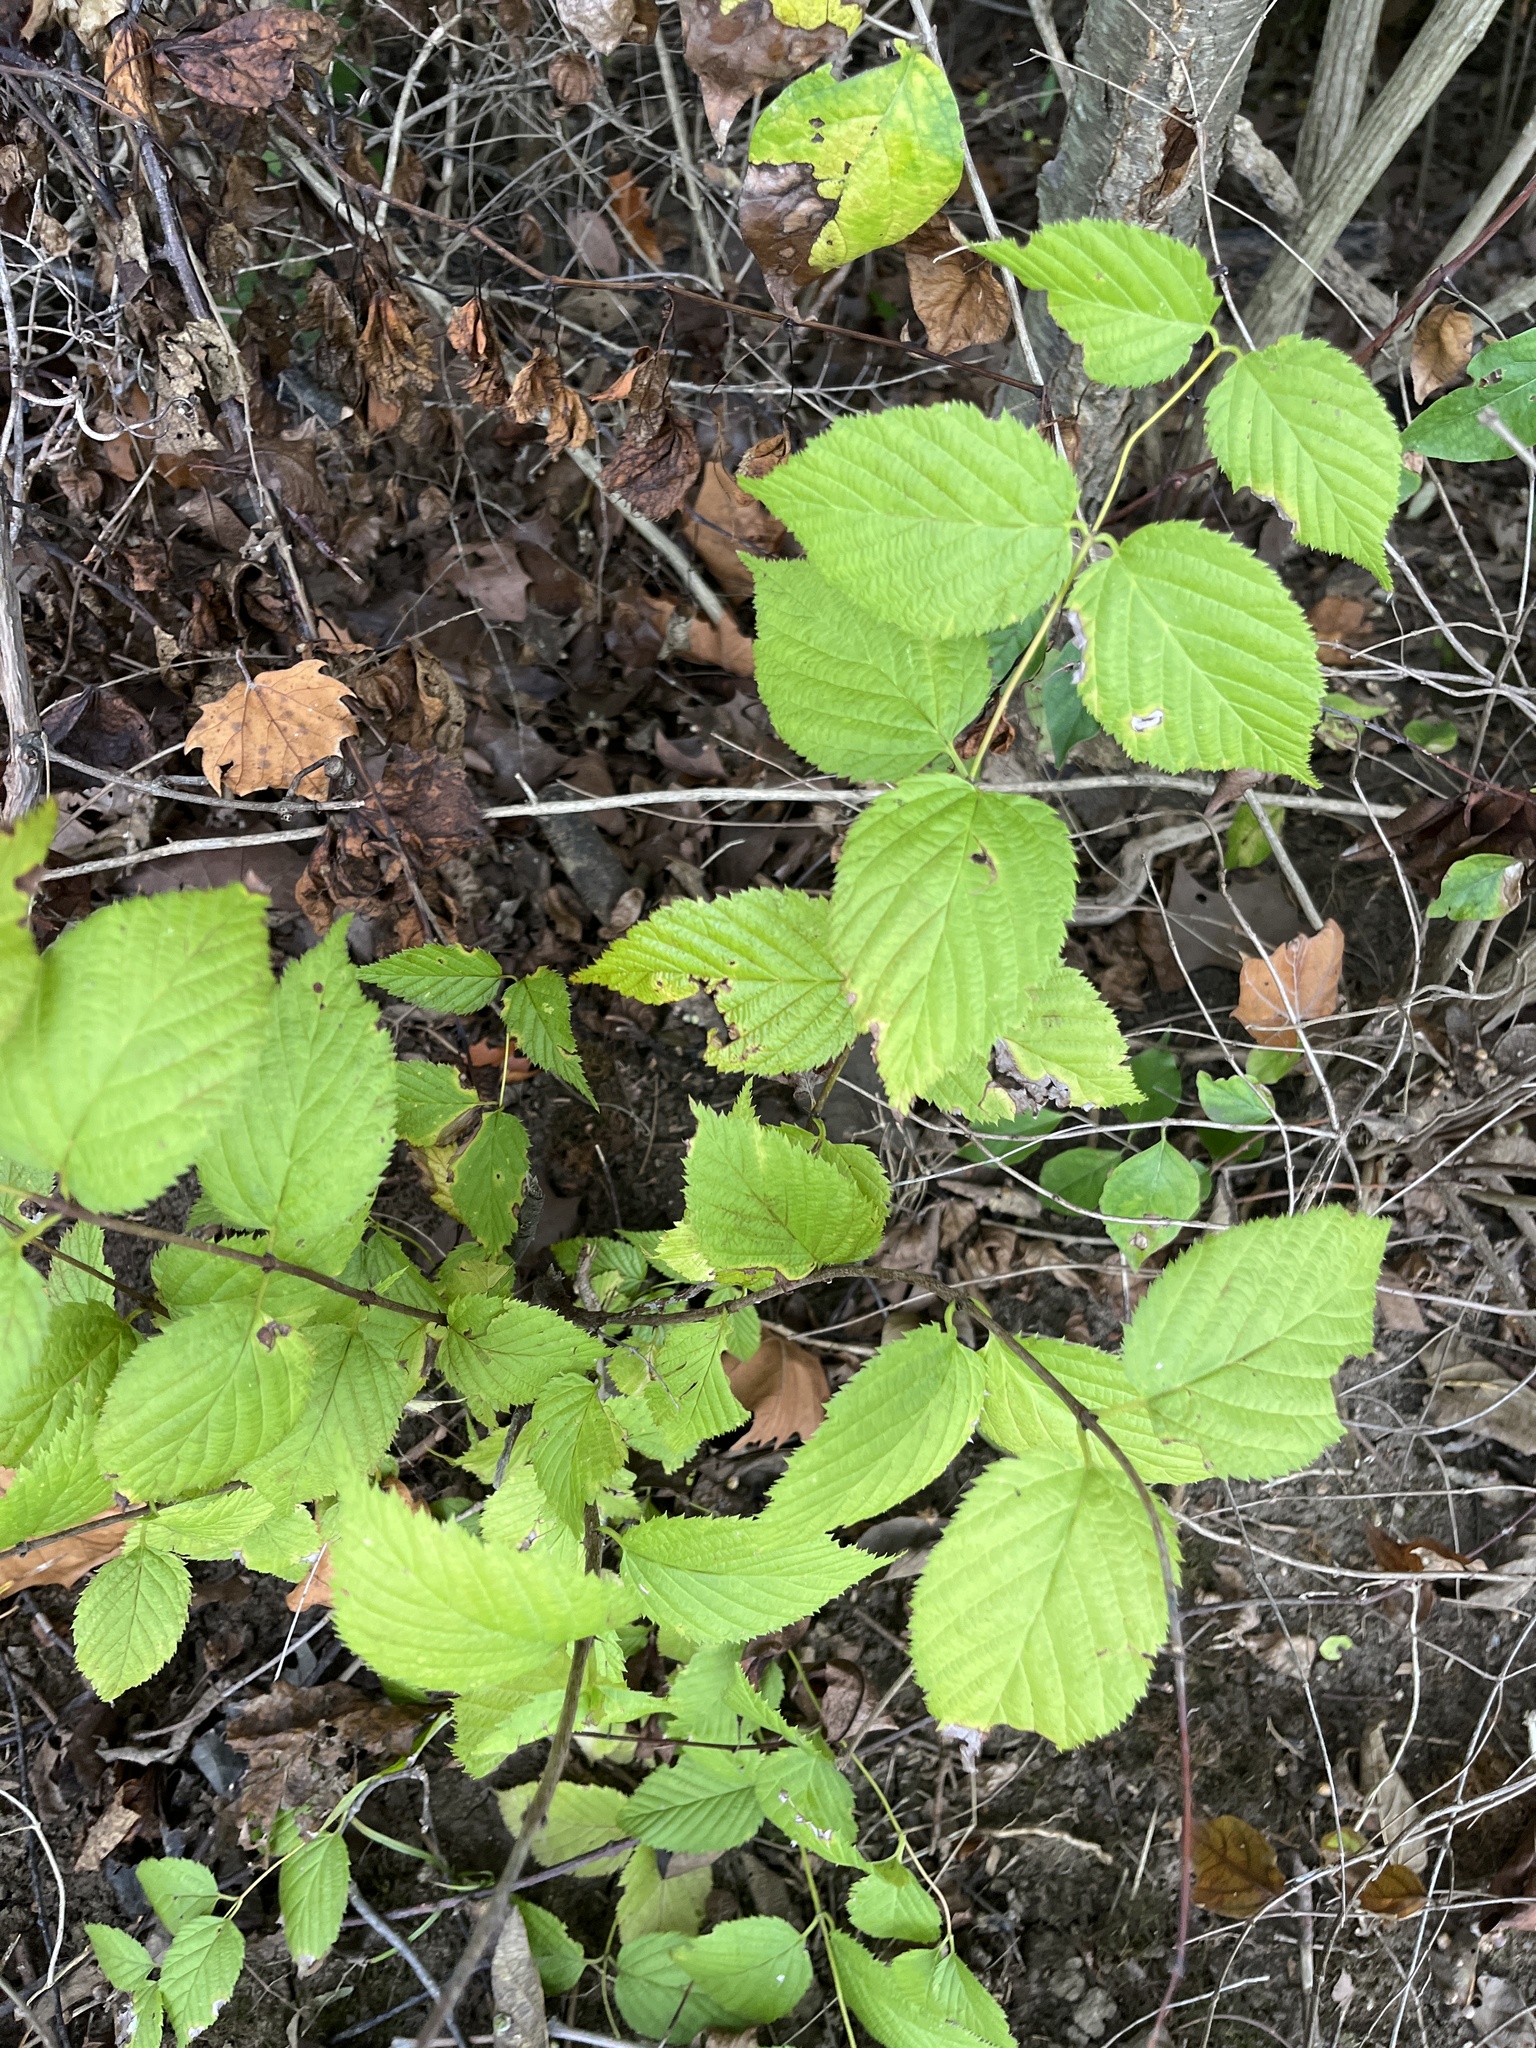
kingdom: Plantae
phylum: Tracheophyta
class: Magnoliopsida
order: Rosales
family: Rosaceae
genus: Rhodotypos
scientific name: Rhodotypos scandens
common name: Jetbead
